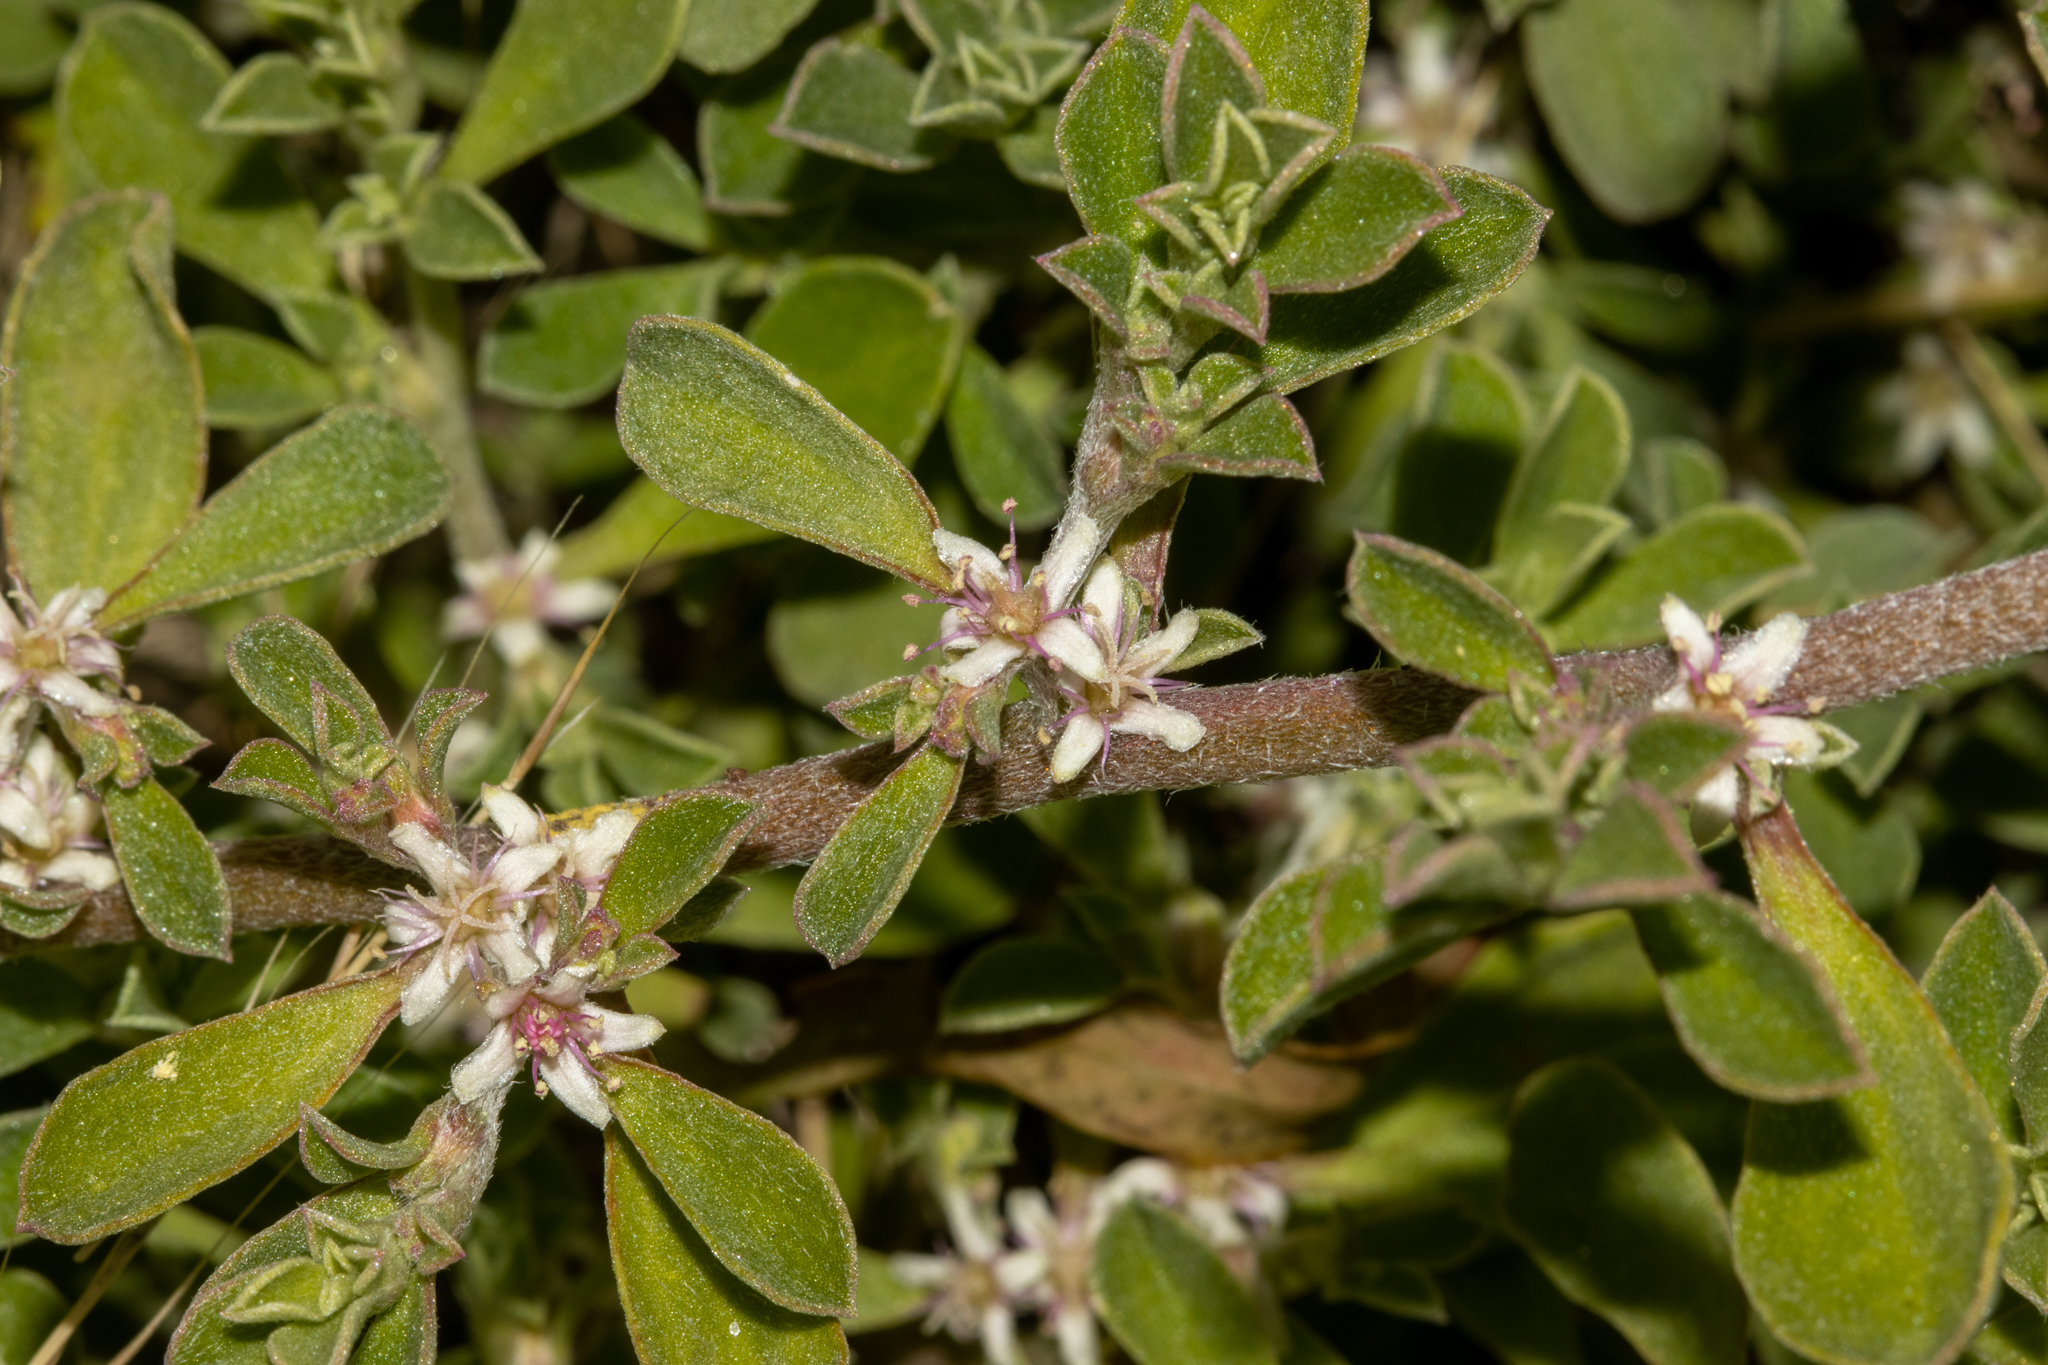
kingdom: Plantae
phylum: Tracheophyta
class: Magnoliopsida
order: Caryophyllales
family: Aizoaceae
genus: Aizoon
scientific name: Aizoon pubescens
